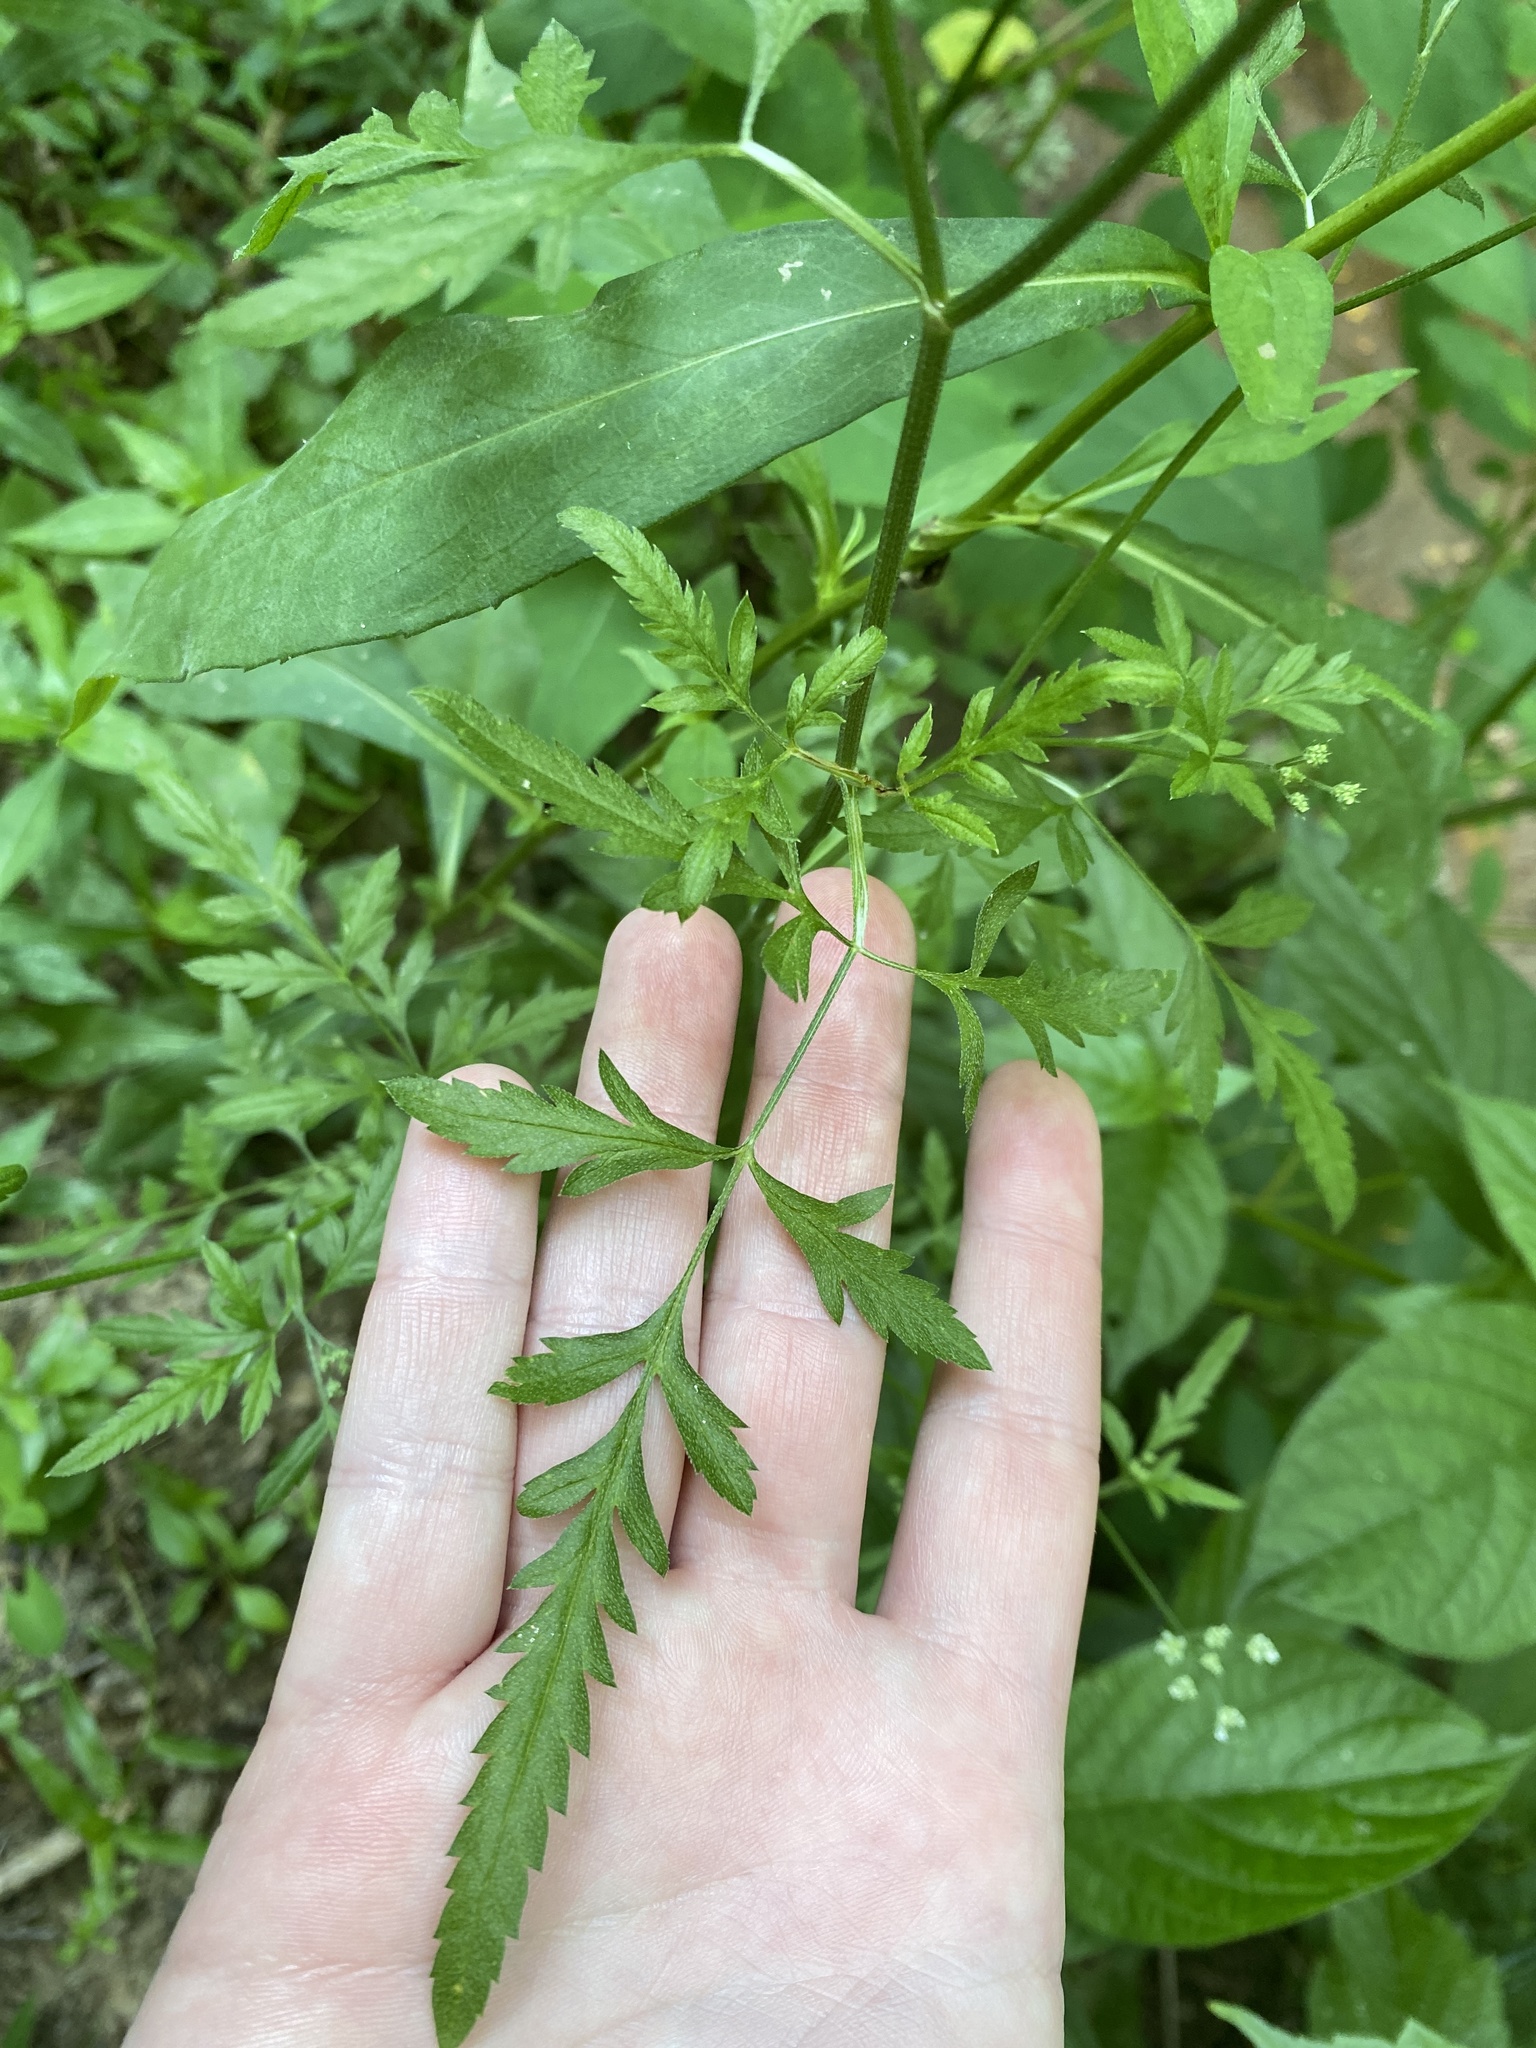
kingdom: Plantae
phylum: Tracheophyta
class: Magnoliopsida
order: Apiales
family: Apiaceae
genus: Torilis
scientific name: Torilis arvensis
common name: Spreading hedge-parsley
